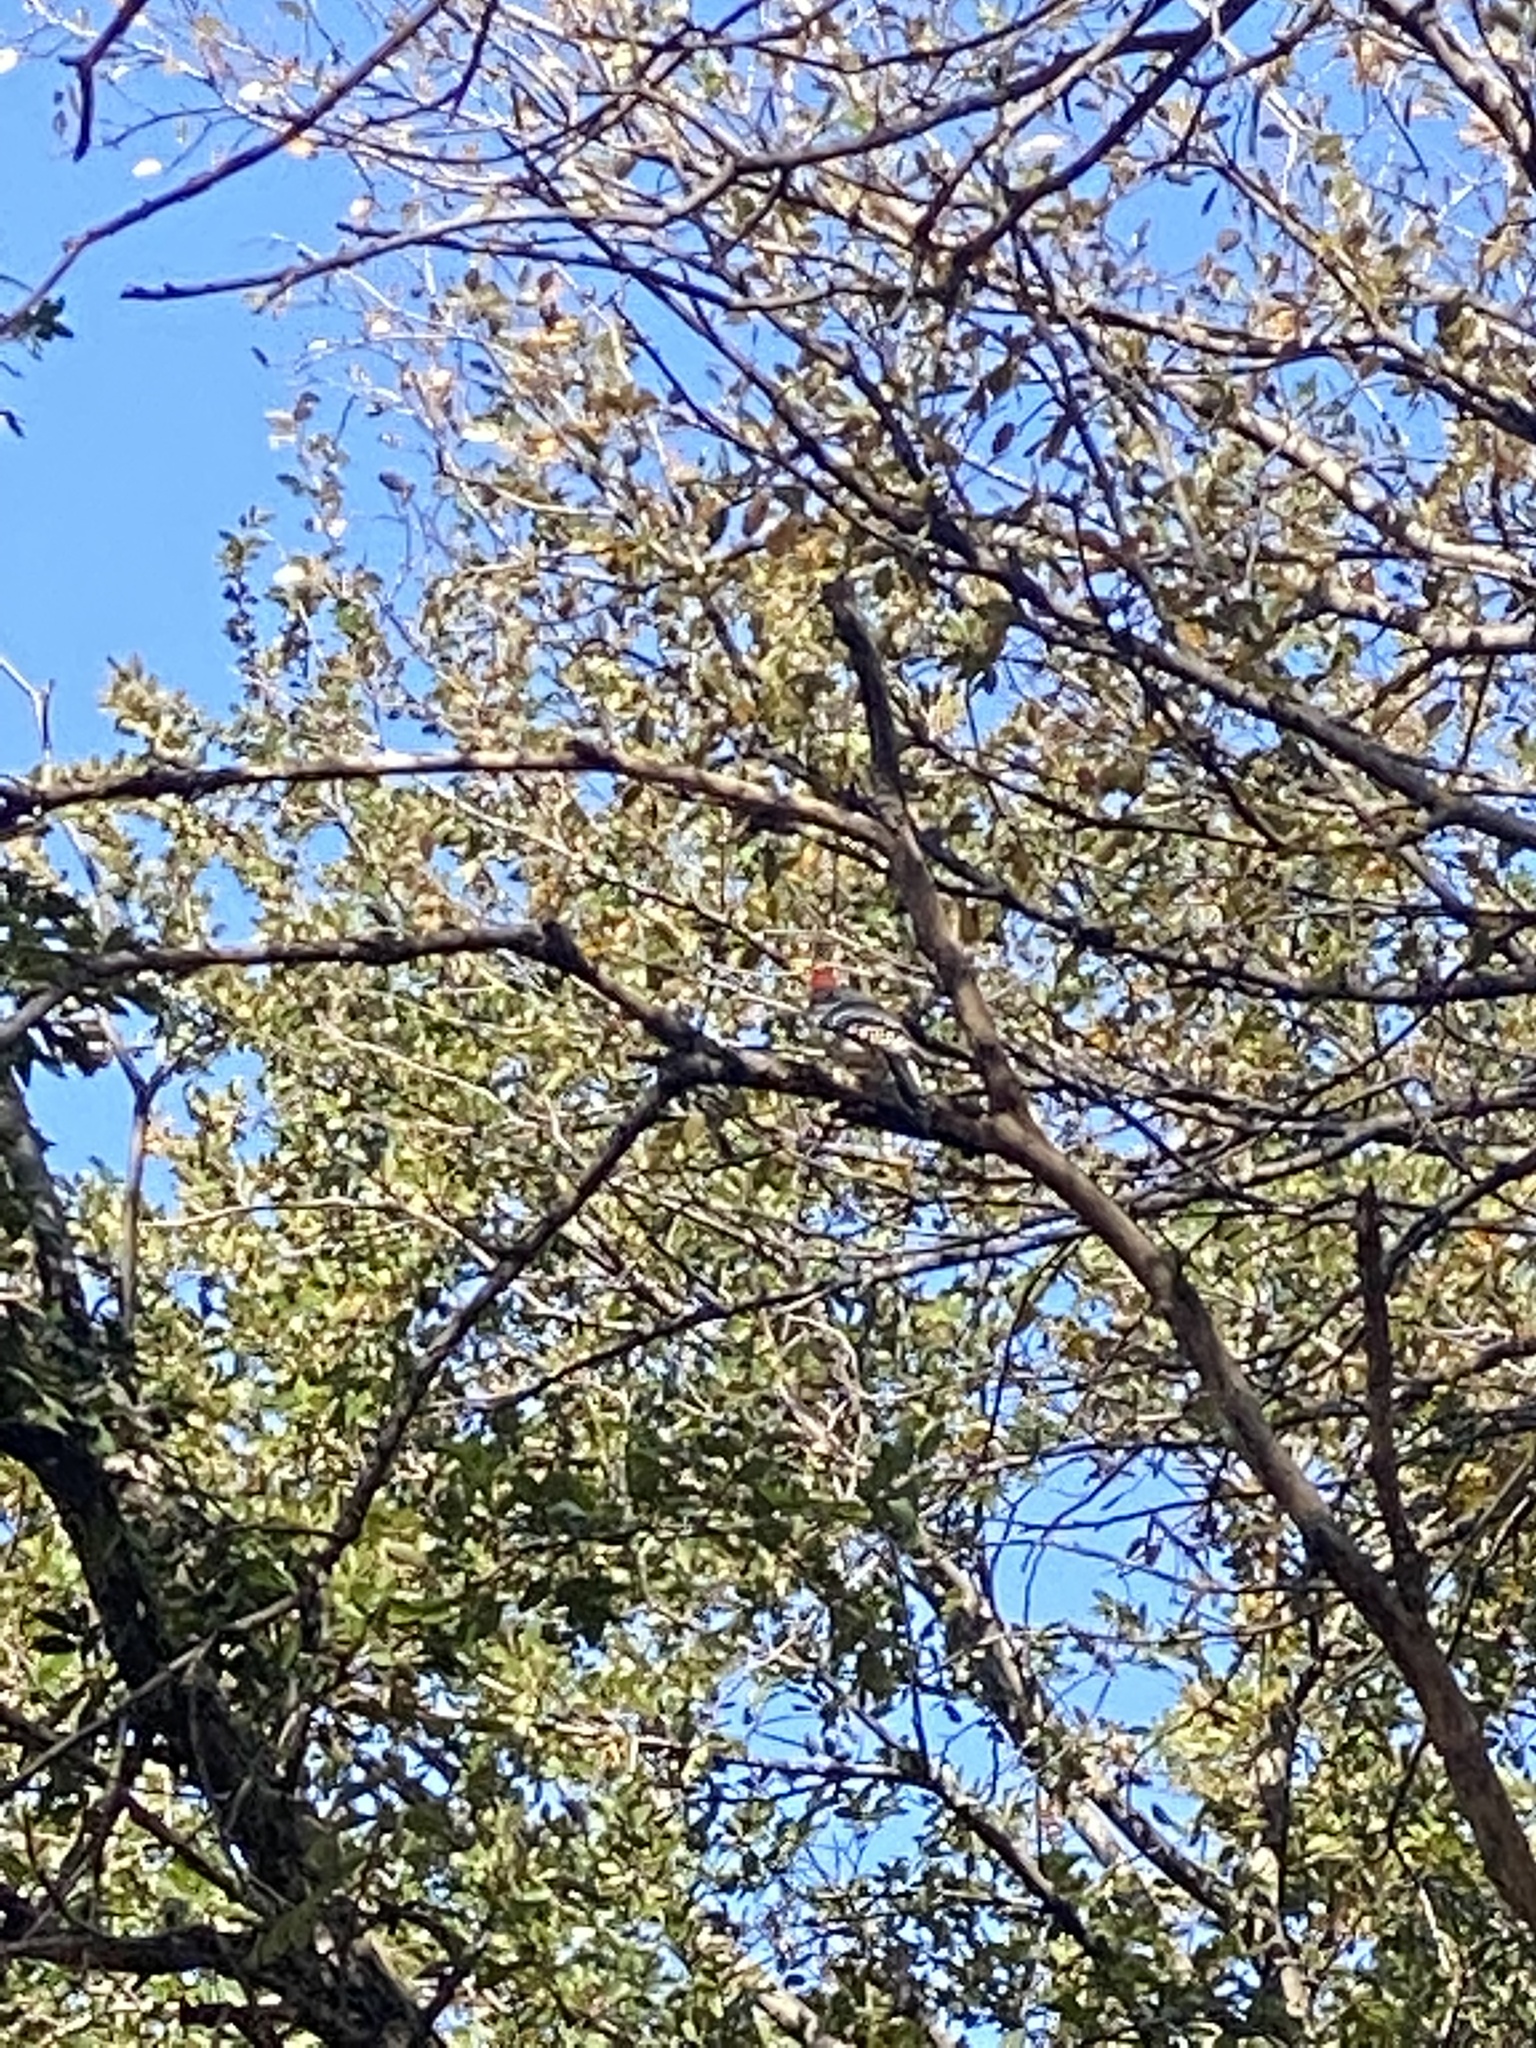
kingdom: Animalia
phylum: Chordata
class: Aves
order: Piciformes
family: Picidae
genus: Melanerpes
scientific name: Melanerpes carolinus
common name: Red-bellied woodpecker
